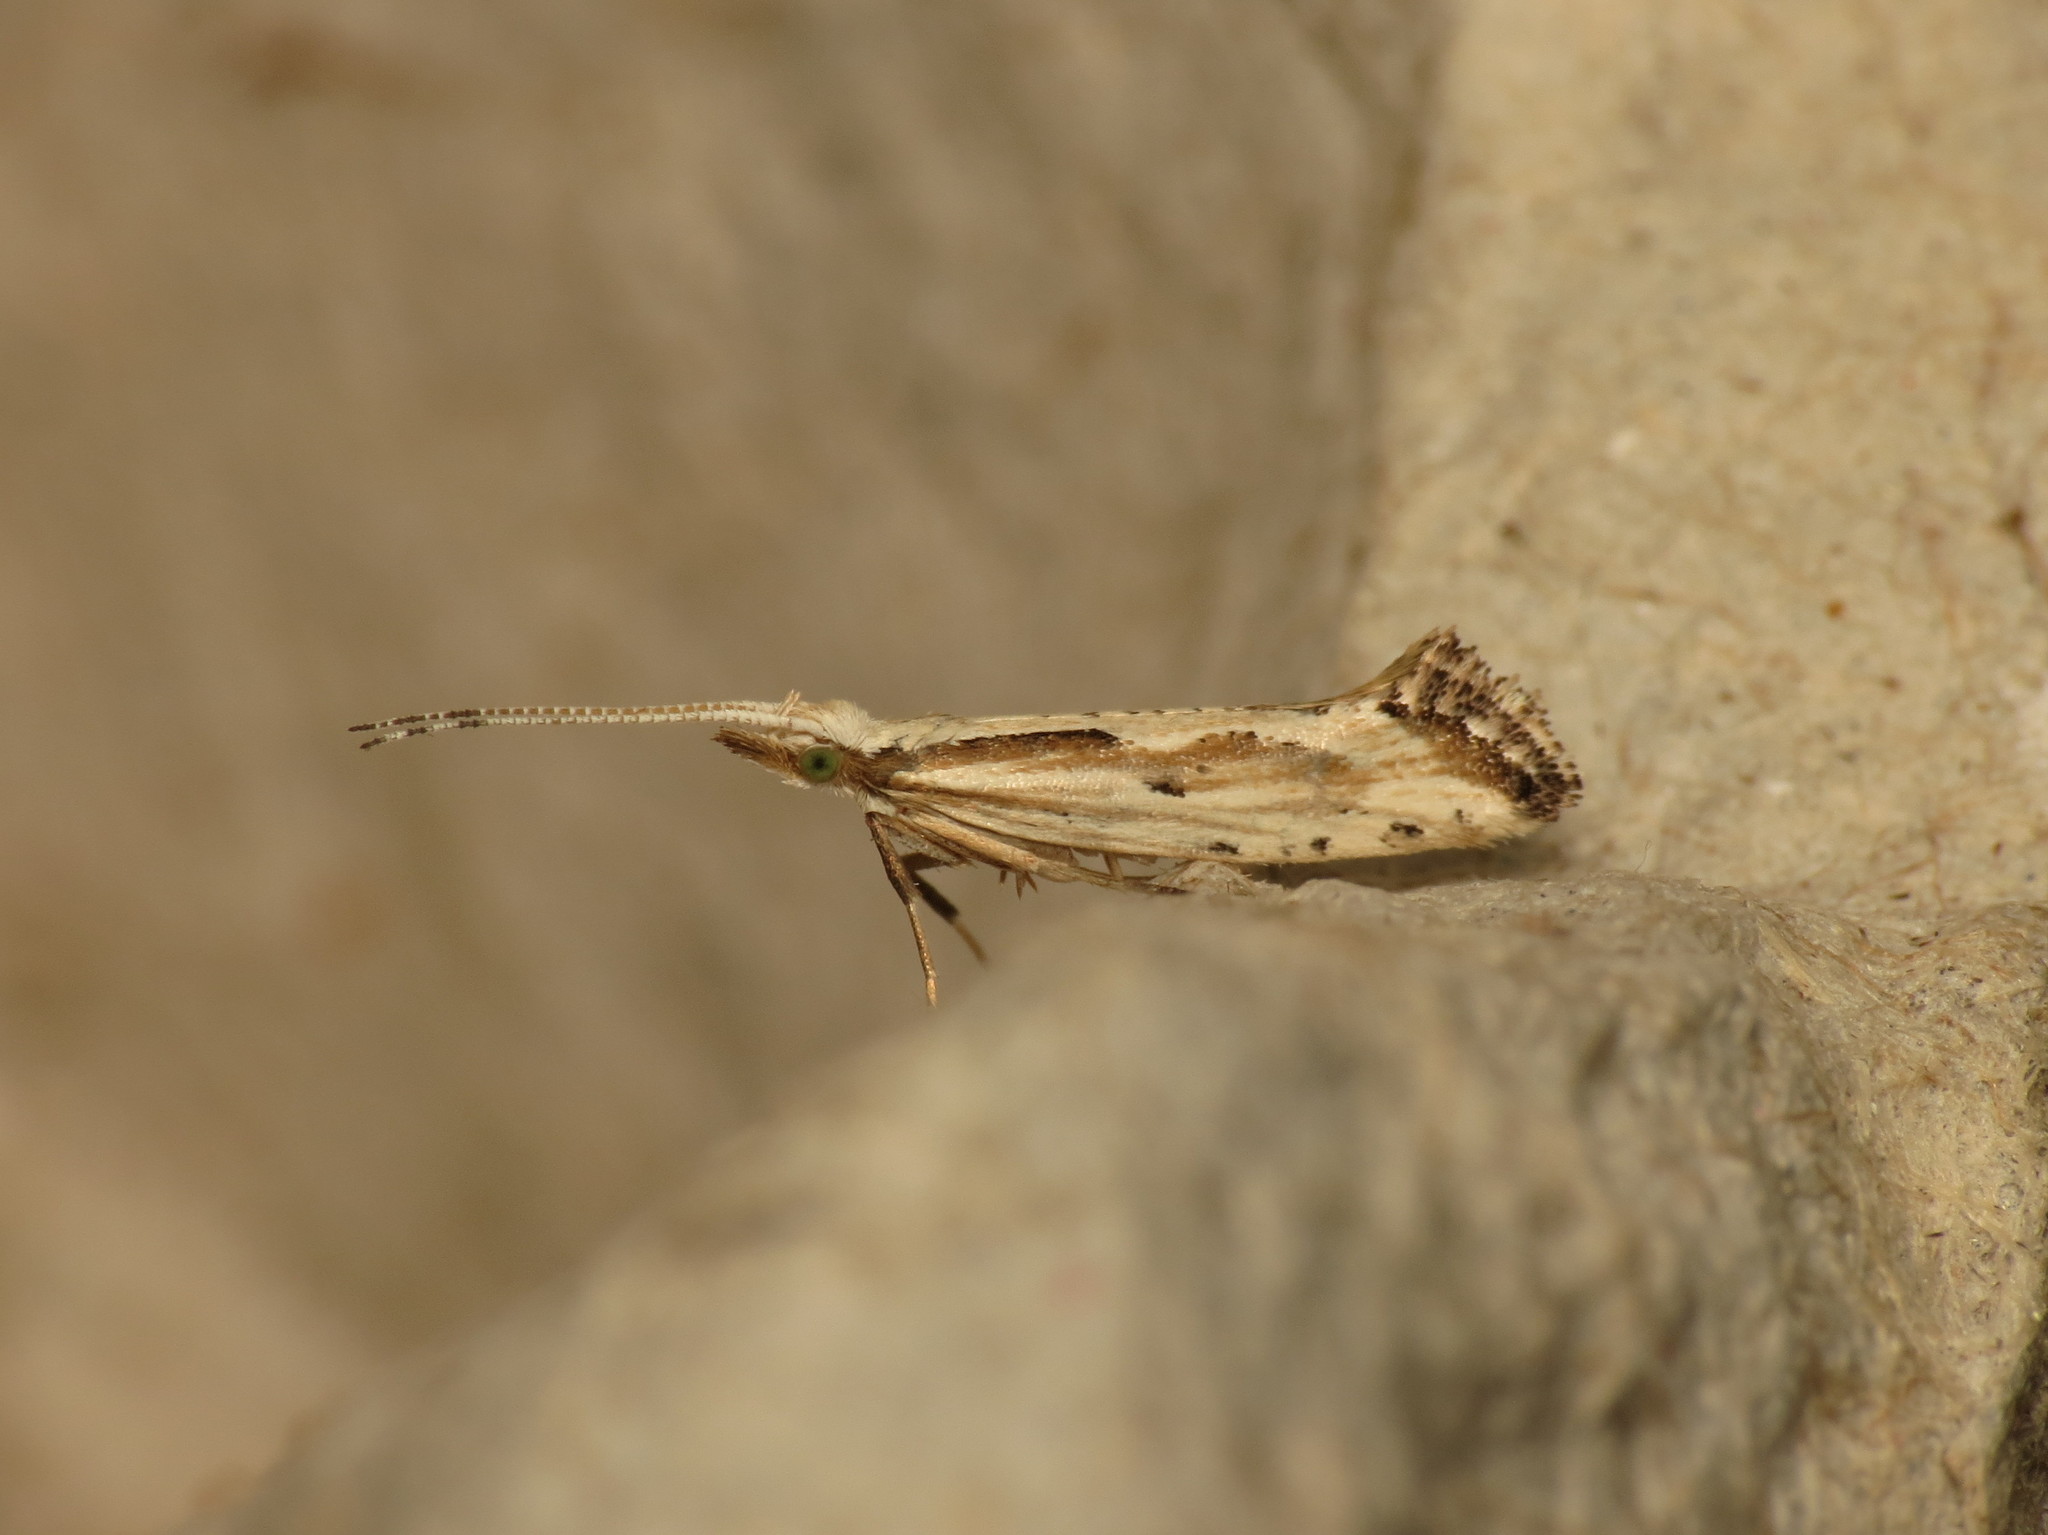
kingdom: Animalia
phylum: Arthropoda
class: Insecta
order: Lepidoptera
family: Plutellidae
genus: Plutella
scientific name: Plutella porrectella
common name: Dame's rocket moth
